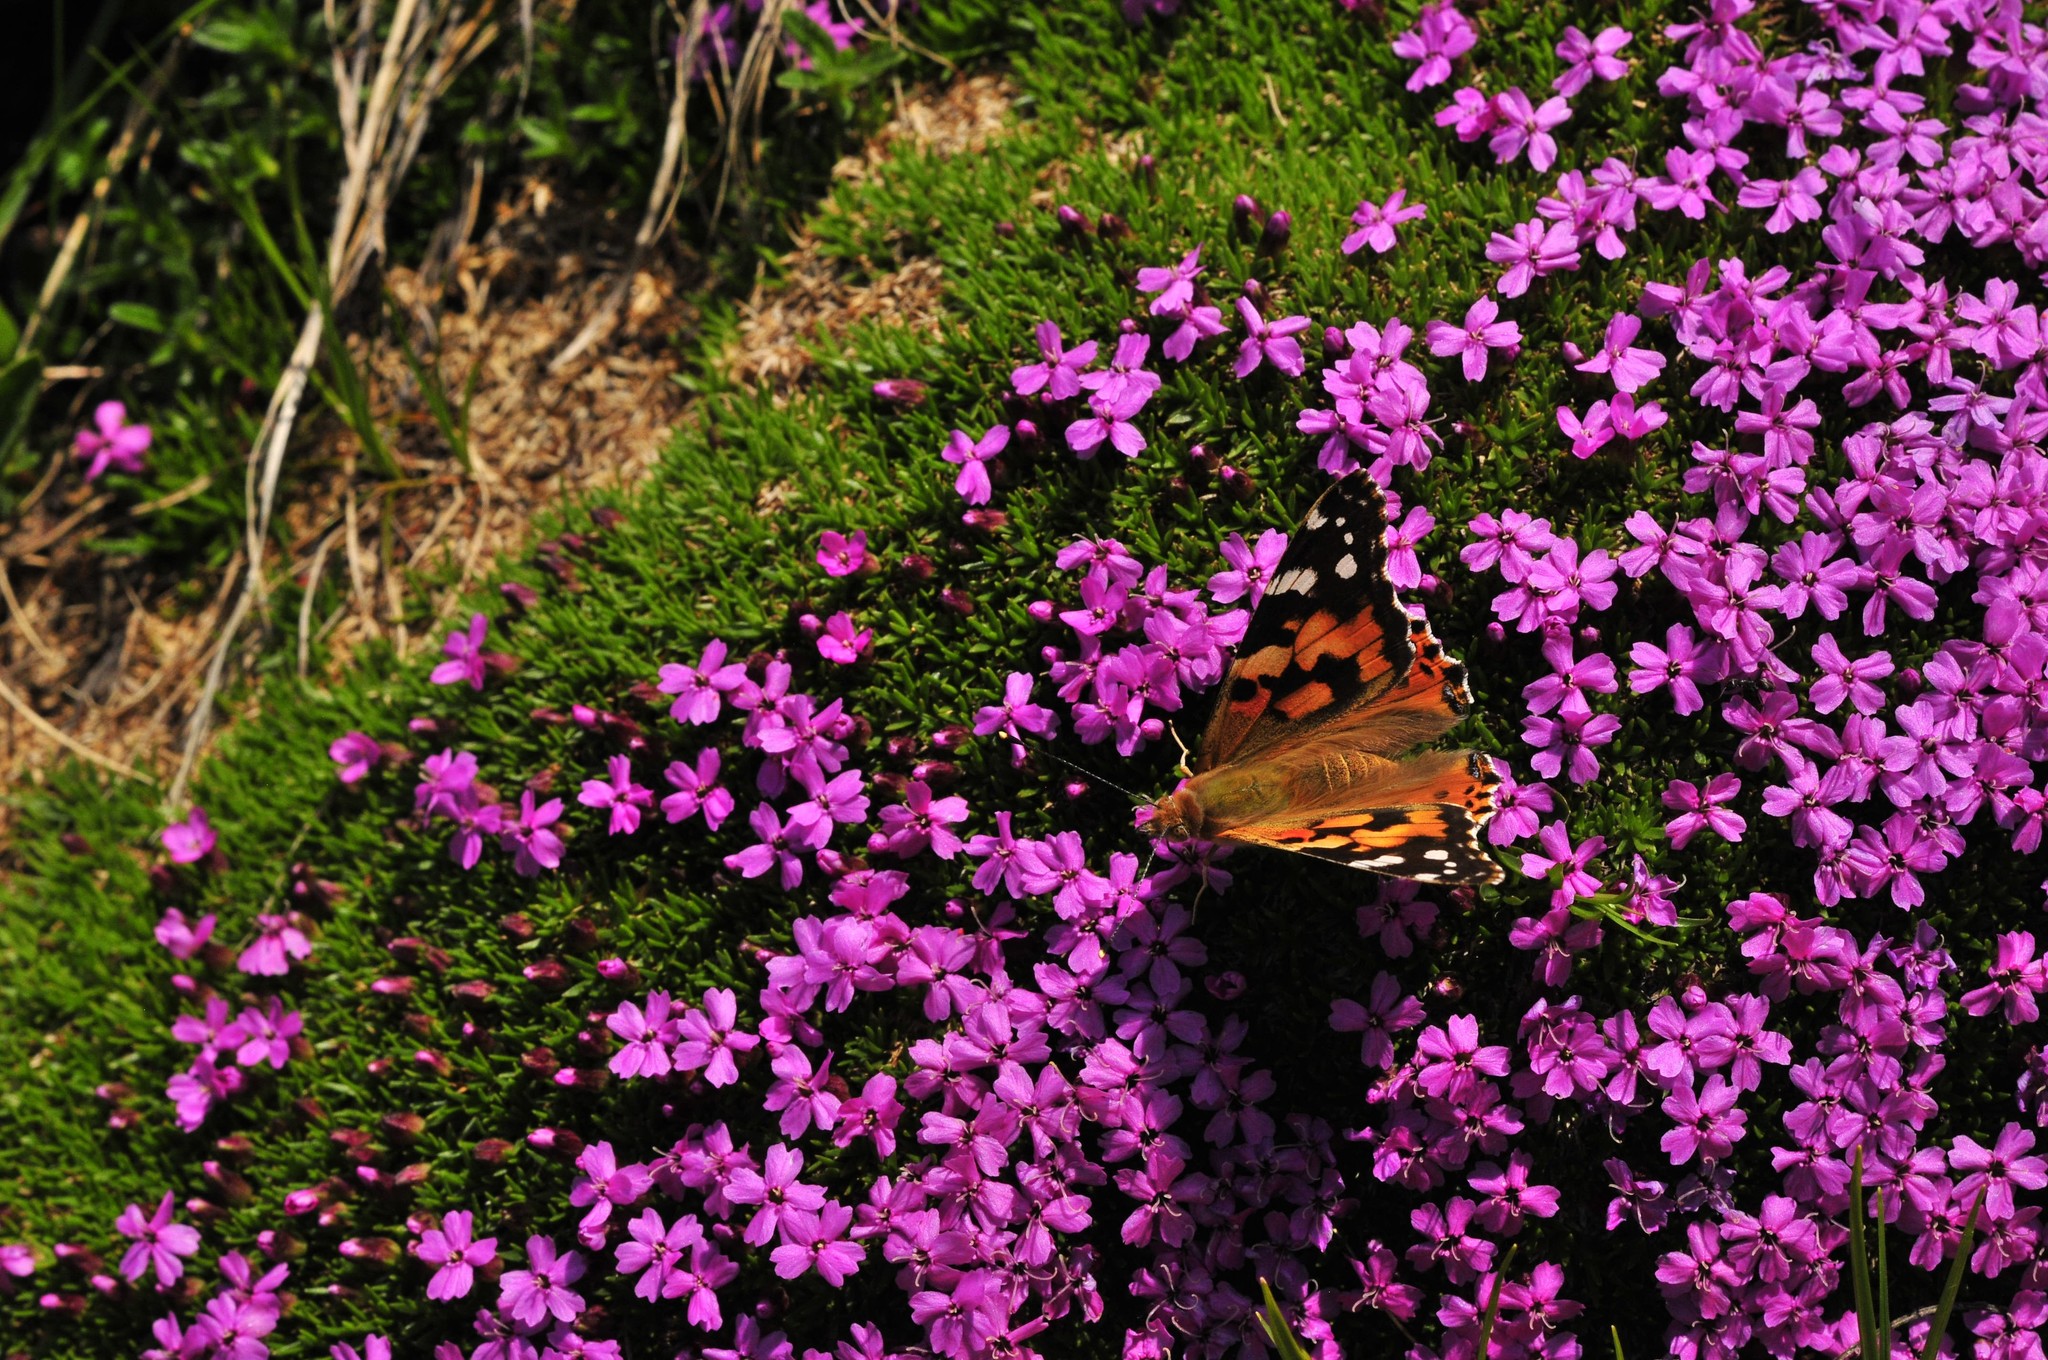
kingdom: Animalia
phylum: Arthropoda
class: Insecta
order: Lepidoptera
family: Nymphalidae
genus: Vanessa
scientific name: Vanessa cardui
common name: Painted lady
